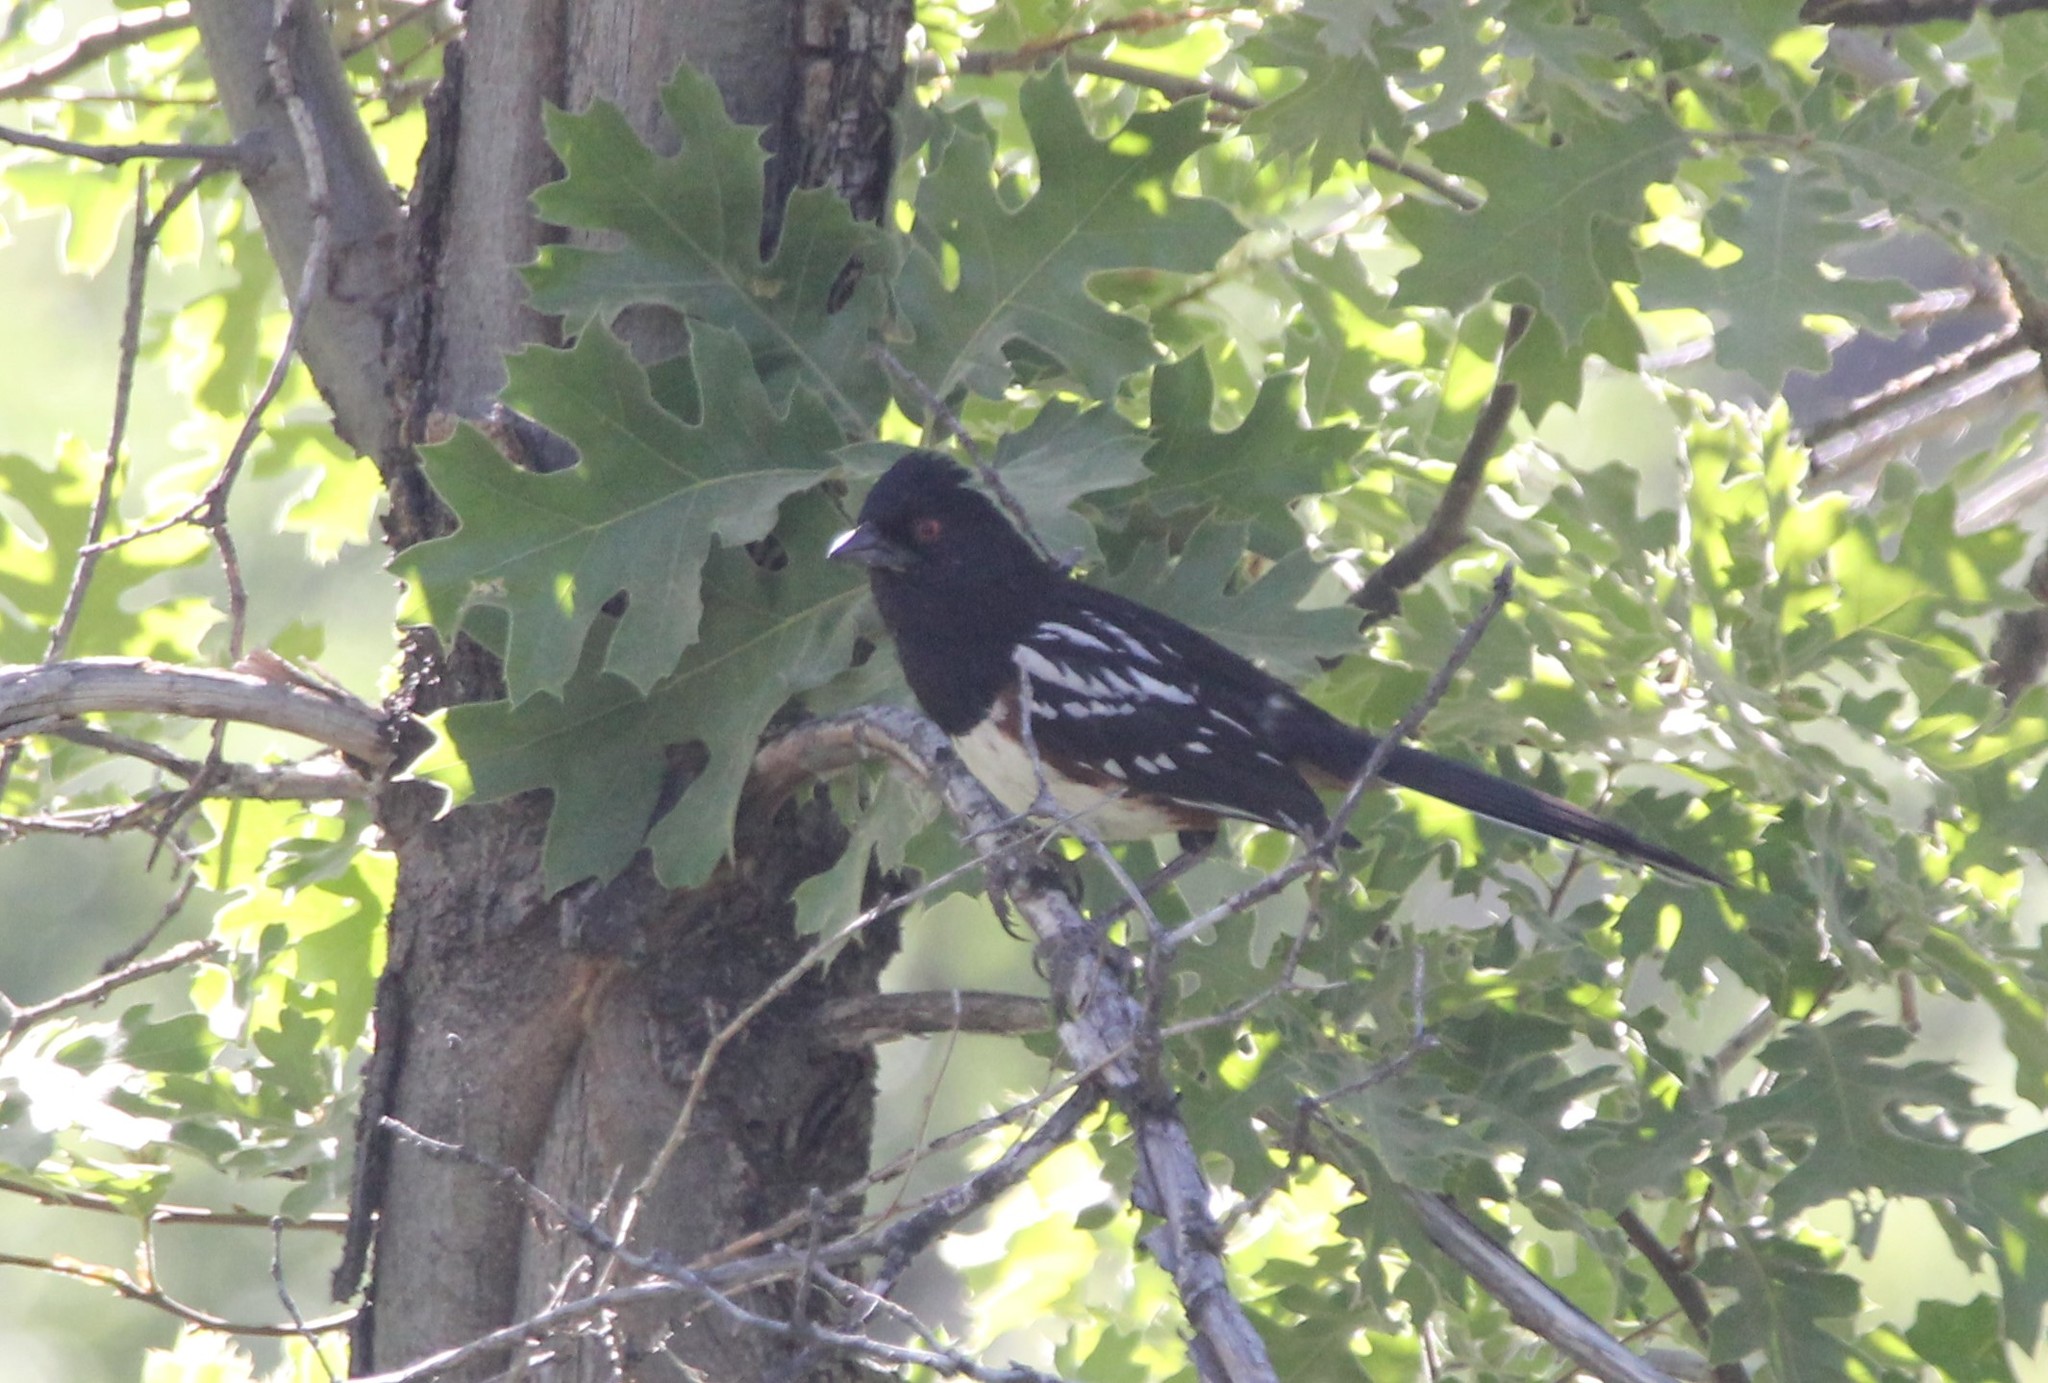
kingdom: Animalia
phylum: Chordata
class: Aves
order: Passeriformes
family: Passerellidae
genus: Pipilo
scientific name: Pipilo maculatus
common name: Spotted towhee
